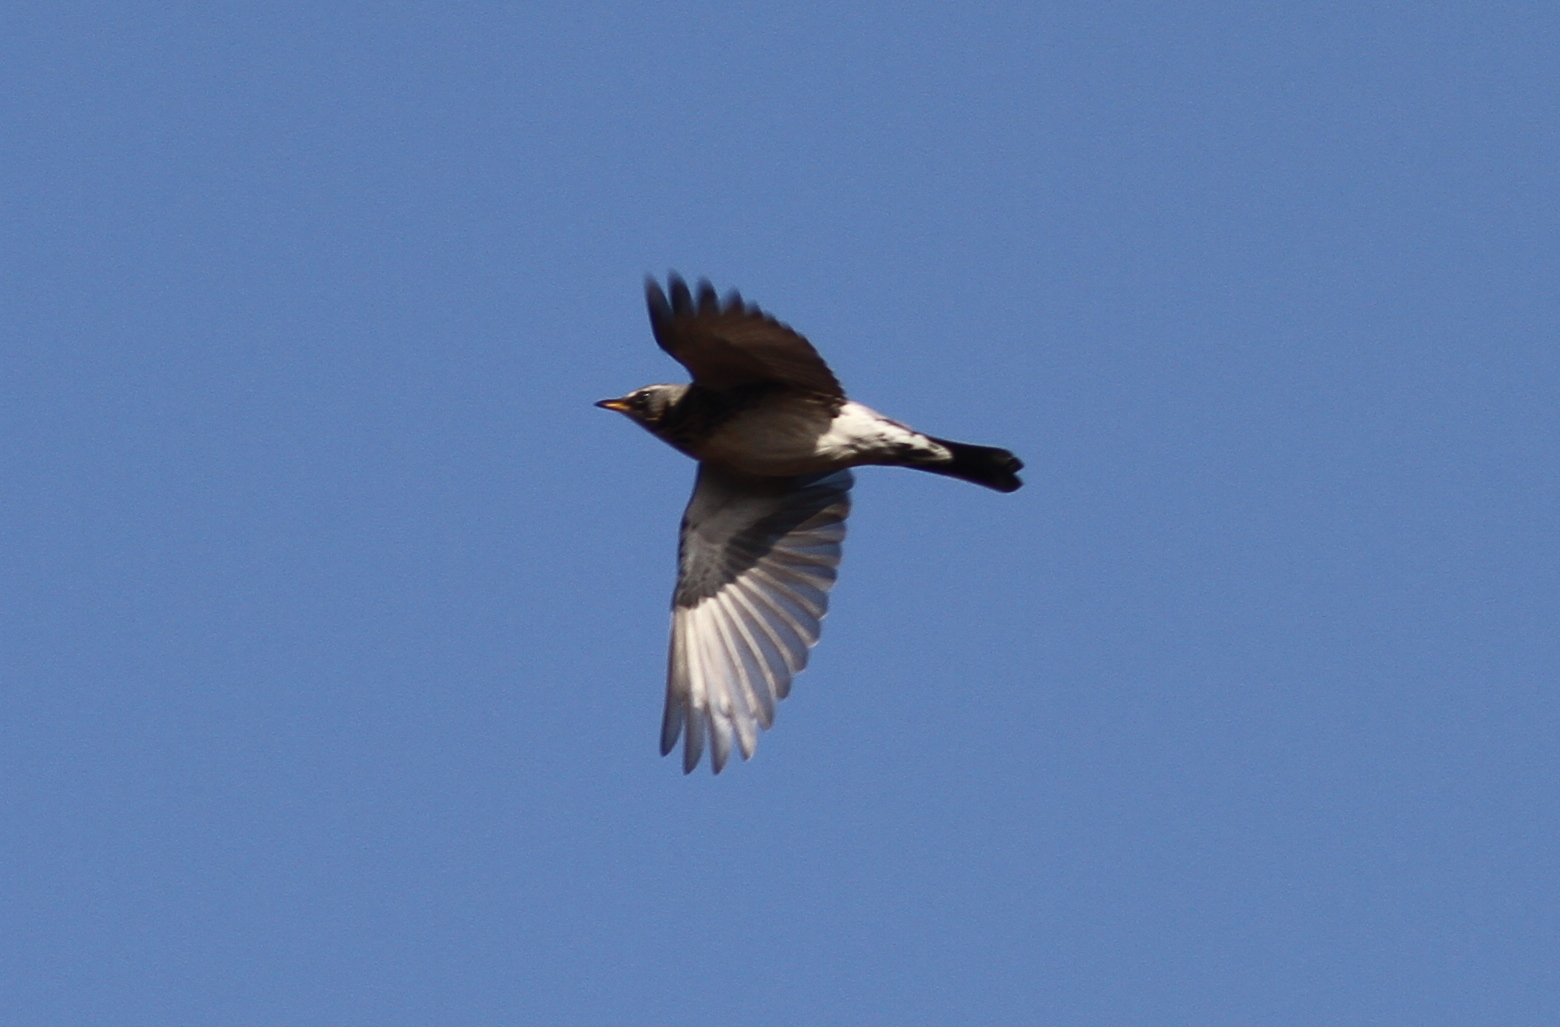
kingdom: Animalia
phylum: Chordata
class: Aves
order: Passeriformes
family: Turdidae
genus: Turdus
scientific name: Turdus pilaris
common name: Fieldfare
